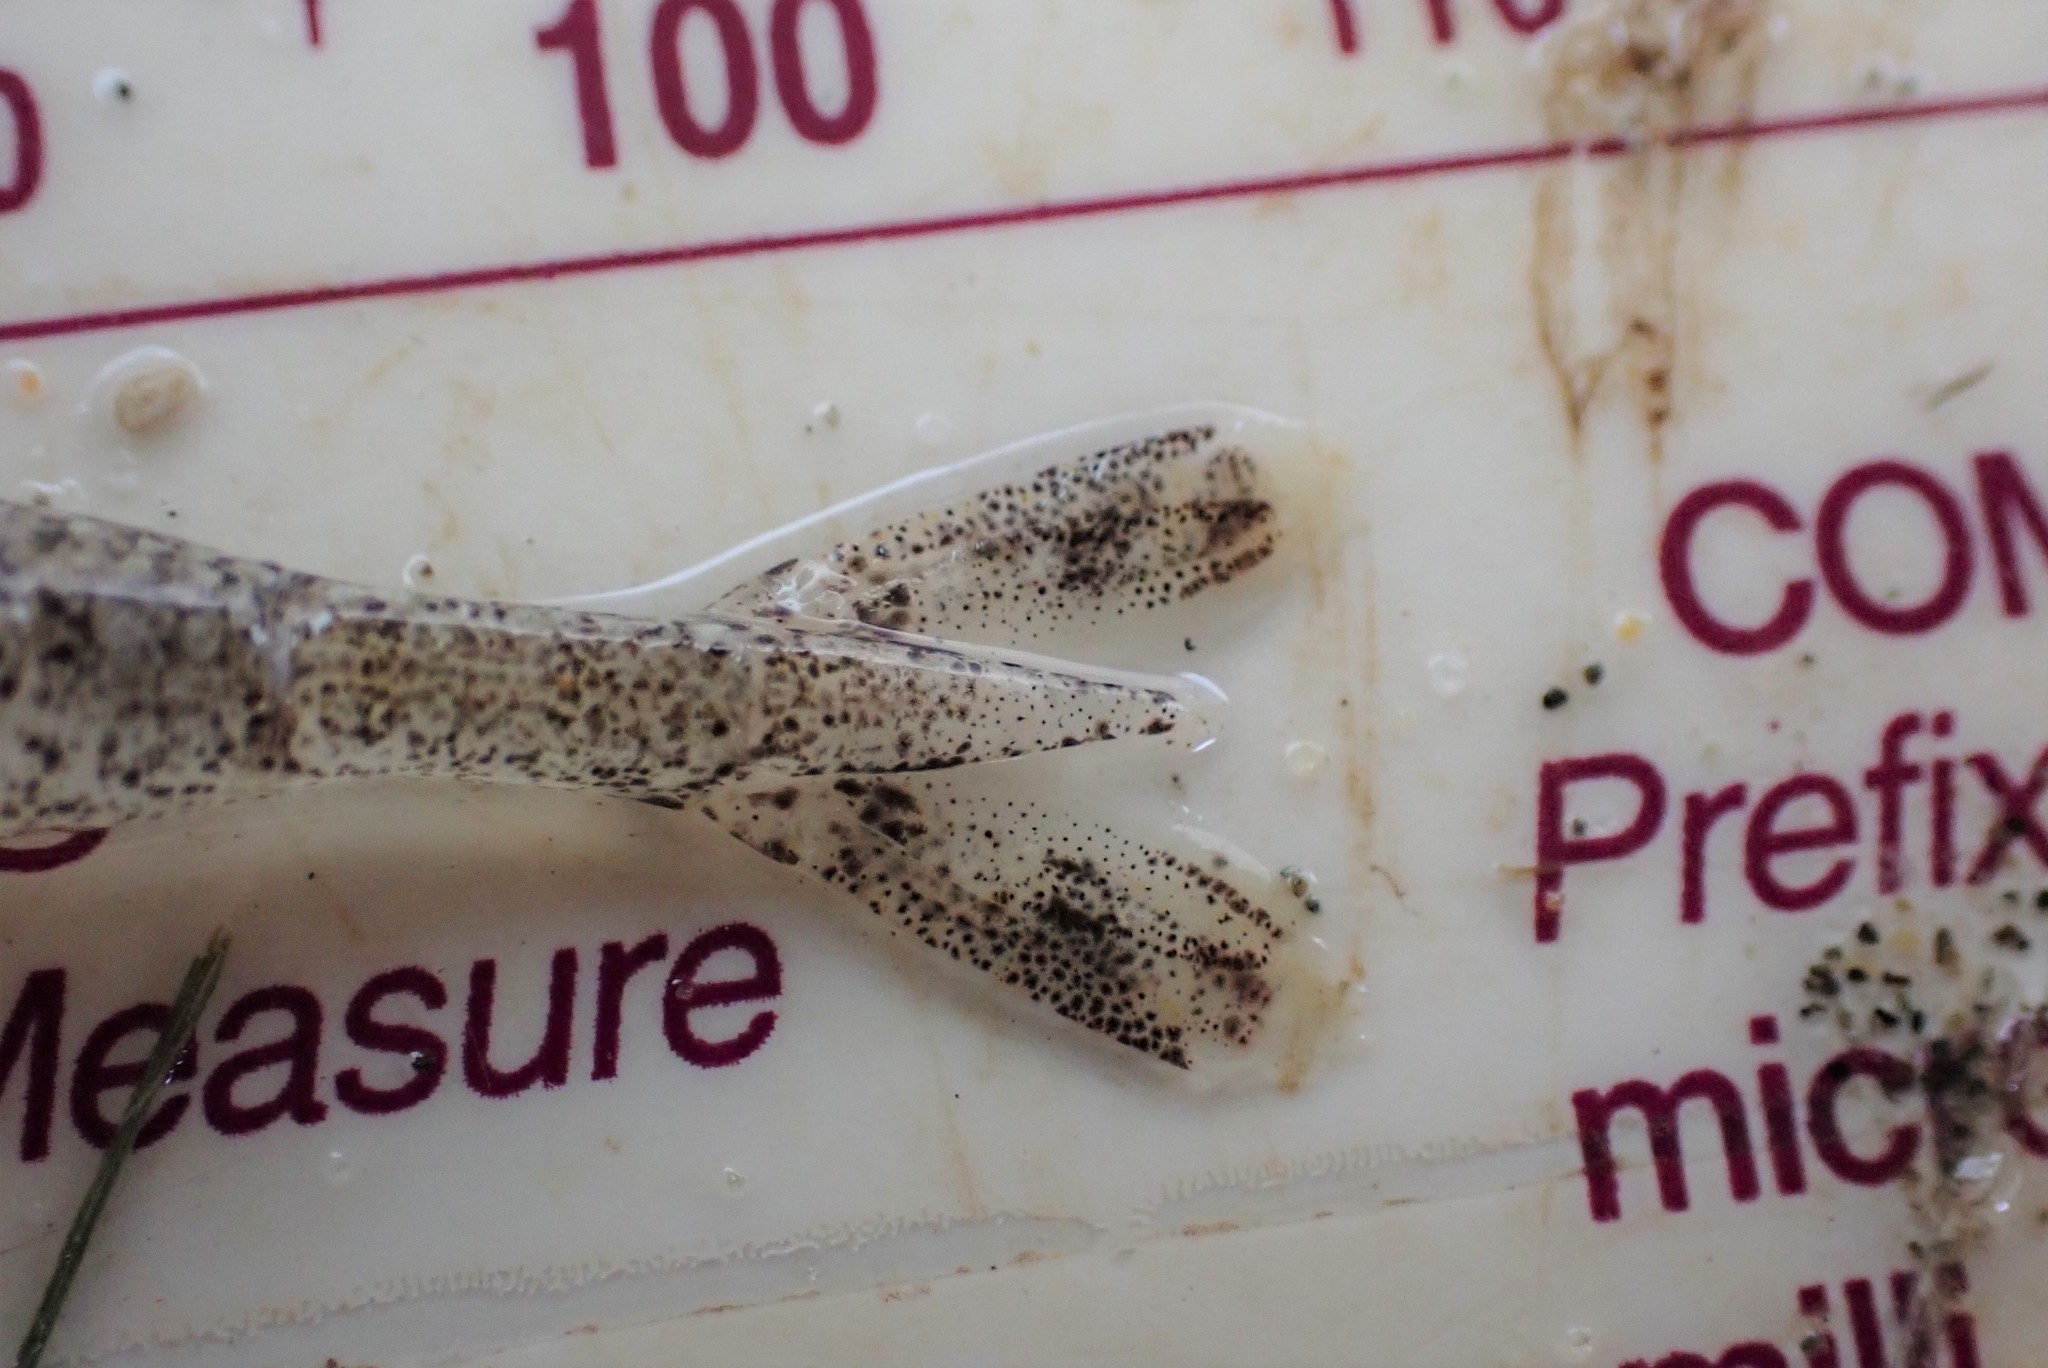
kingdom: Animalia
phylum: Arthropoda
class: Malacostraca
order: Decapoda
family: Crangonidae
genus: Lissocrangon
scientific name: Lissocrangon stylirostris
